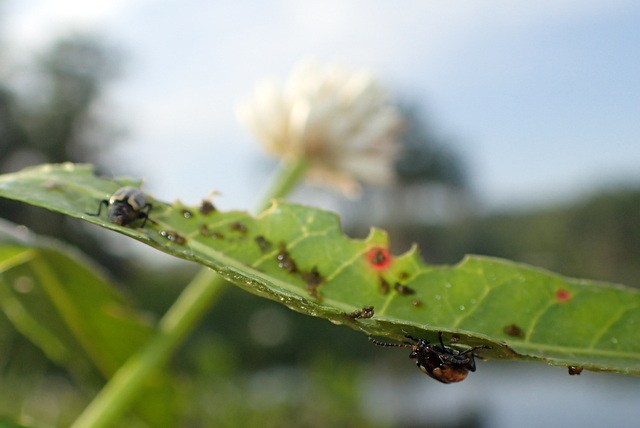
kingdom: Animalia
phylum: Arthropoda
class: Insecta
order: Coleoptera
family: Chrysomelidae
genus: Agasicles
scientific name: Agasicles hygrophila
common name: Alligatorweed flea beetle
